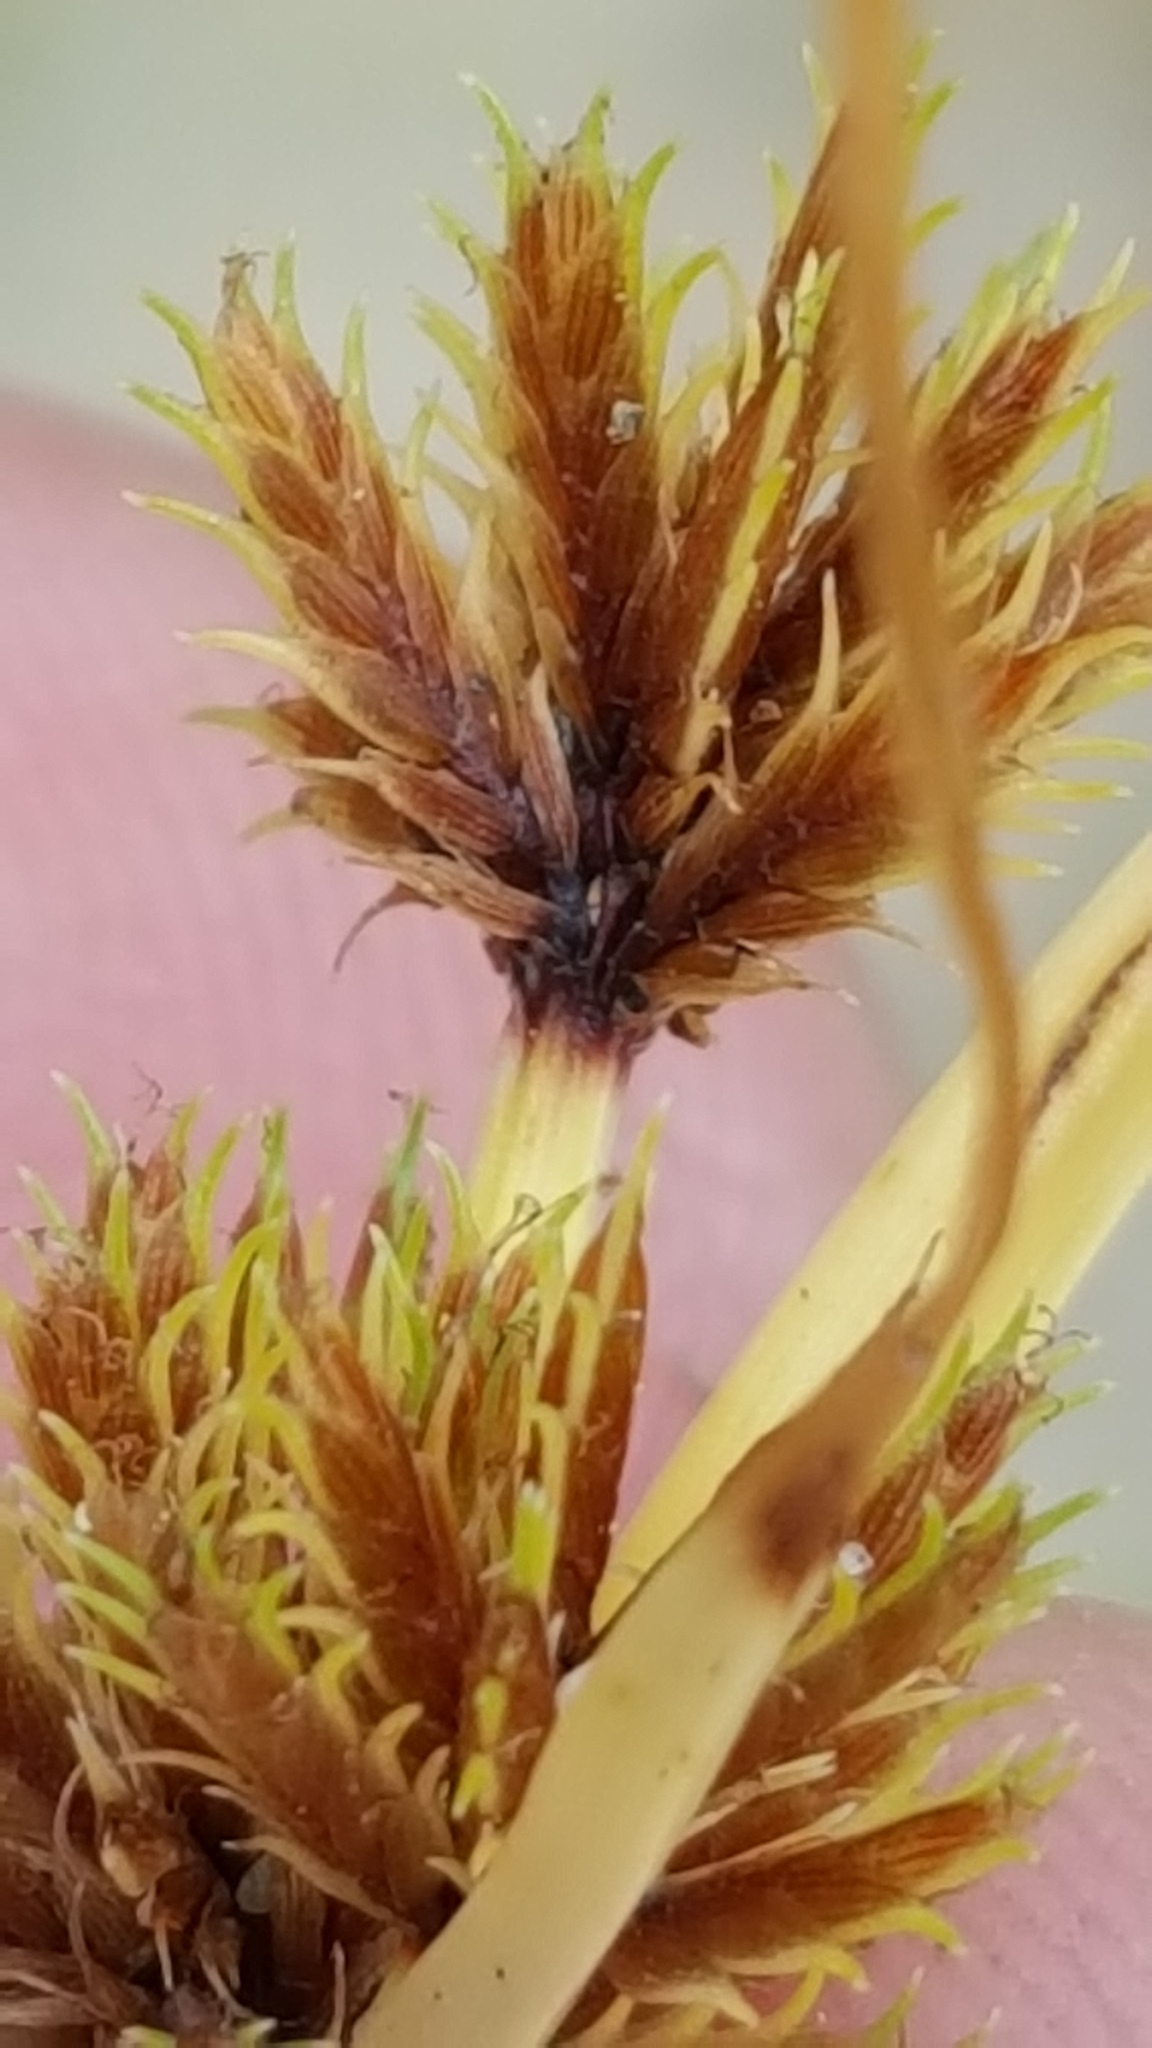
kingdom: Plantae
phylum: Tracheophyta
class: Liliopsida
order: Poales
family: Cyperaceae
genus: Cyperus
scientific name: Cyperus squarrosus
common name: Awned cyperus
